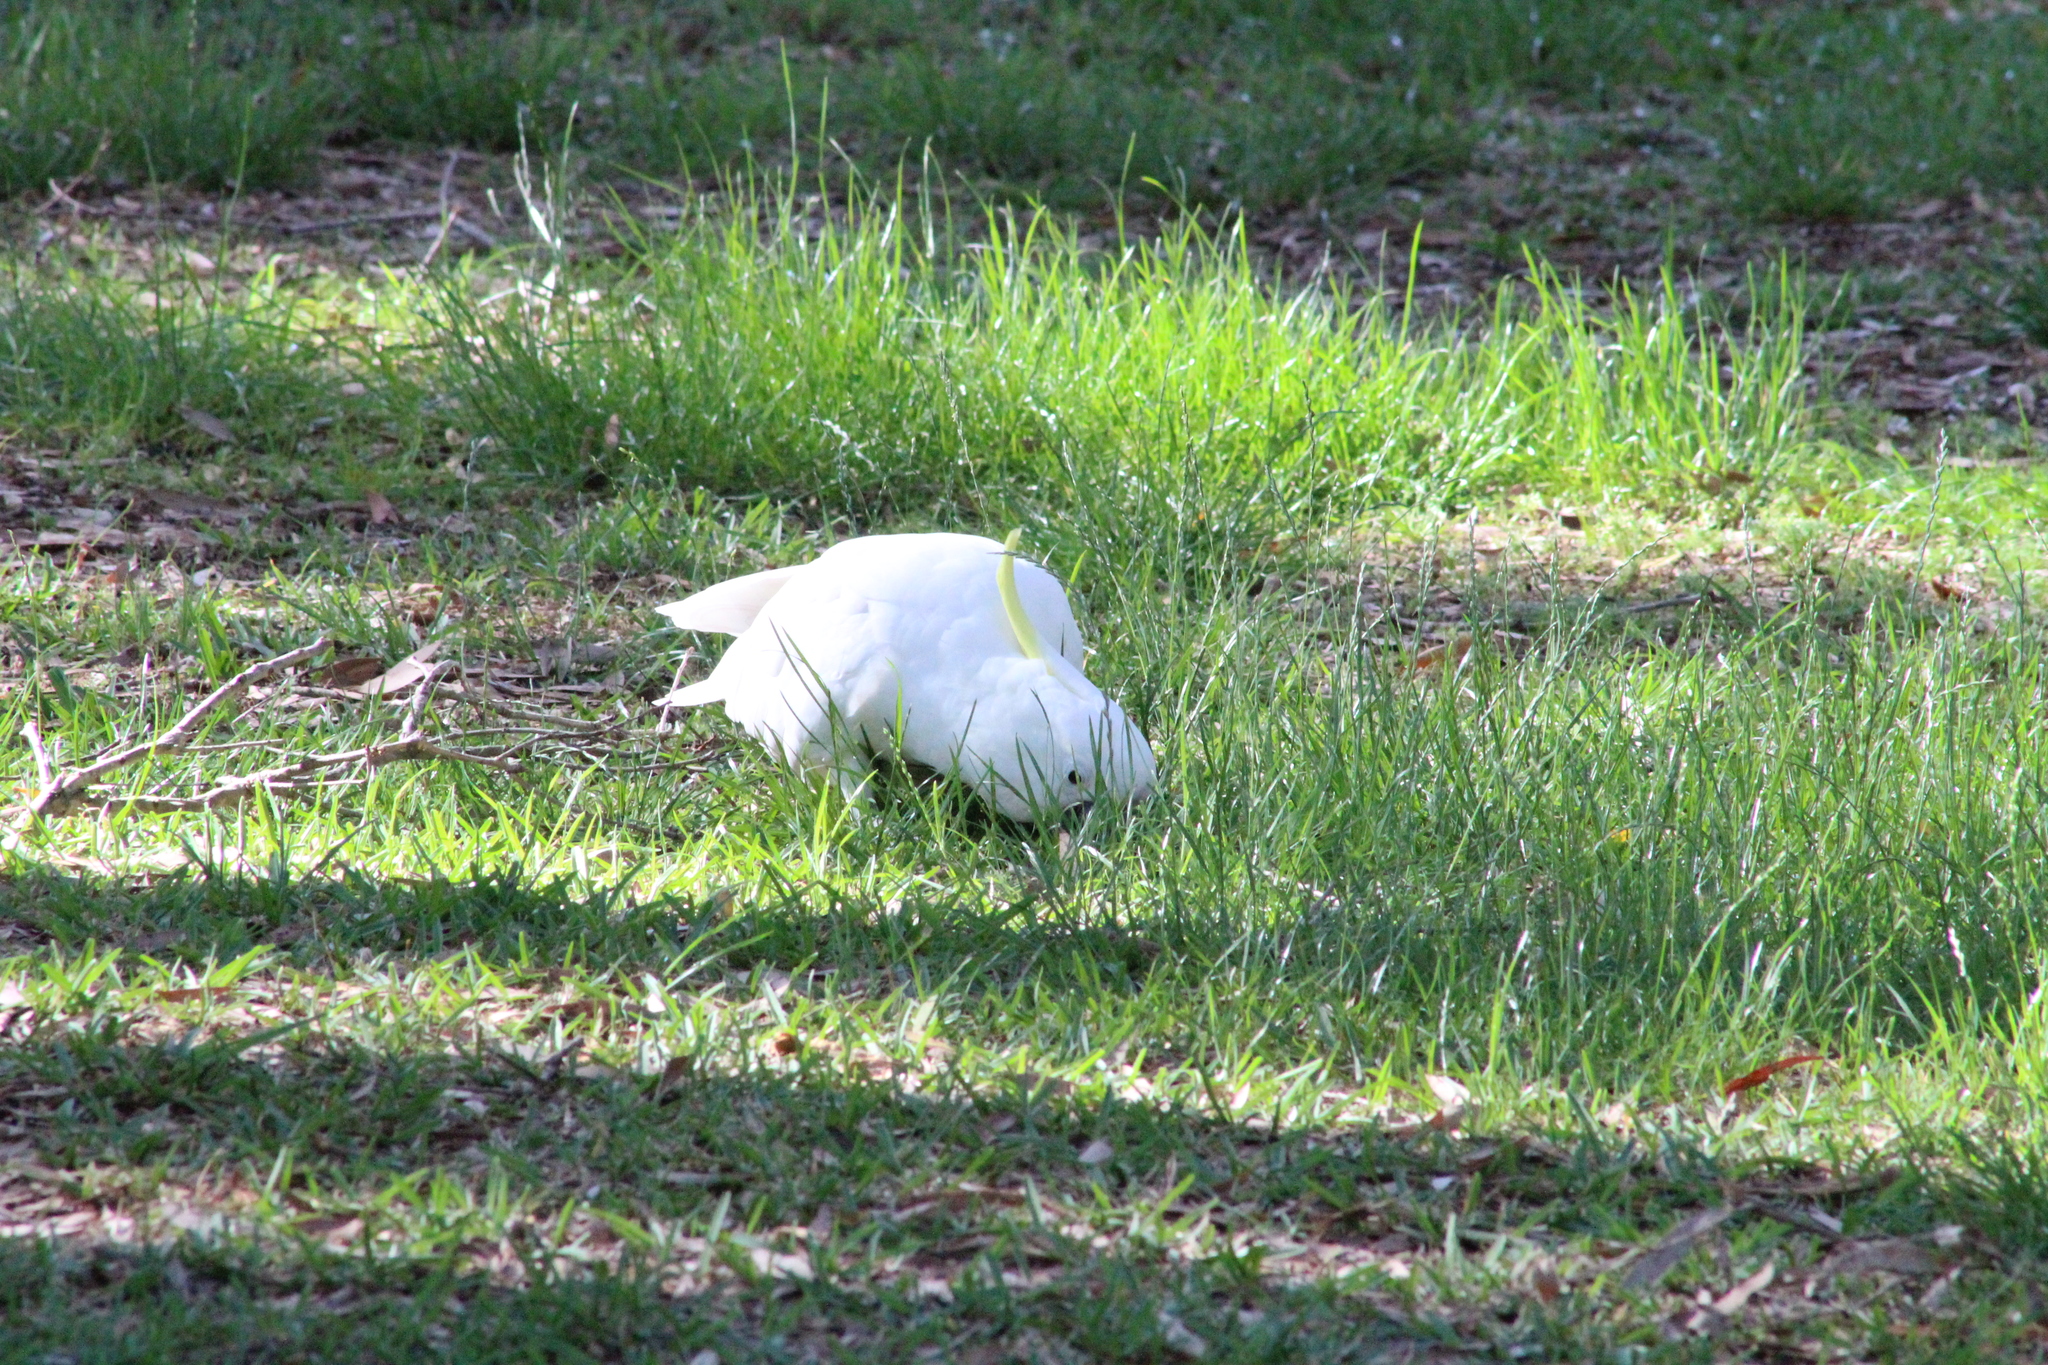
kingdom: Animalia
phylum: Chordata
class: Aves
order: Psittaciformes
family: Psittacidae
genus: Cacatua
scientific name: Cacatua galerita
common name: Sulphur-crested cockatoo
